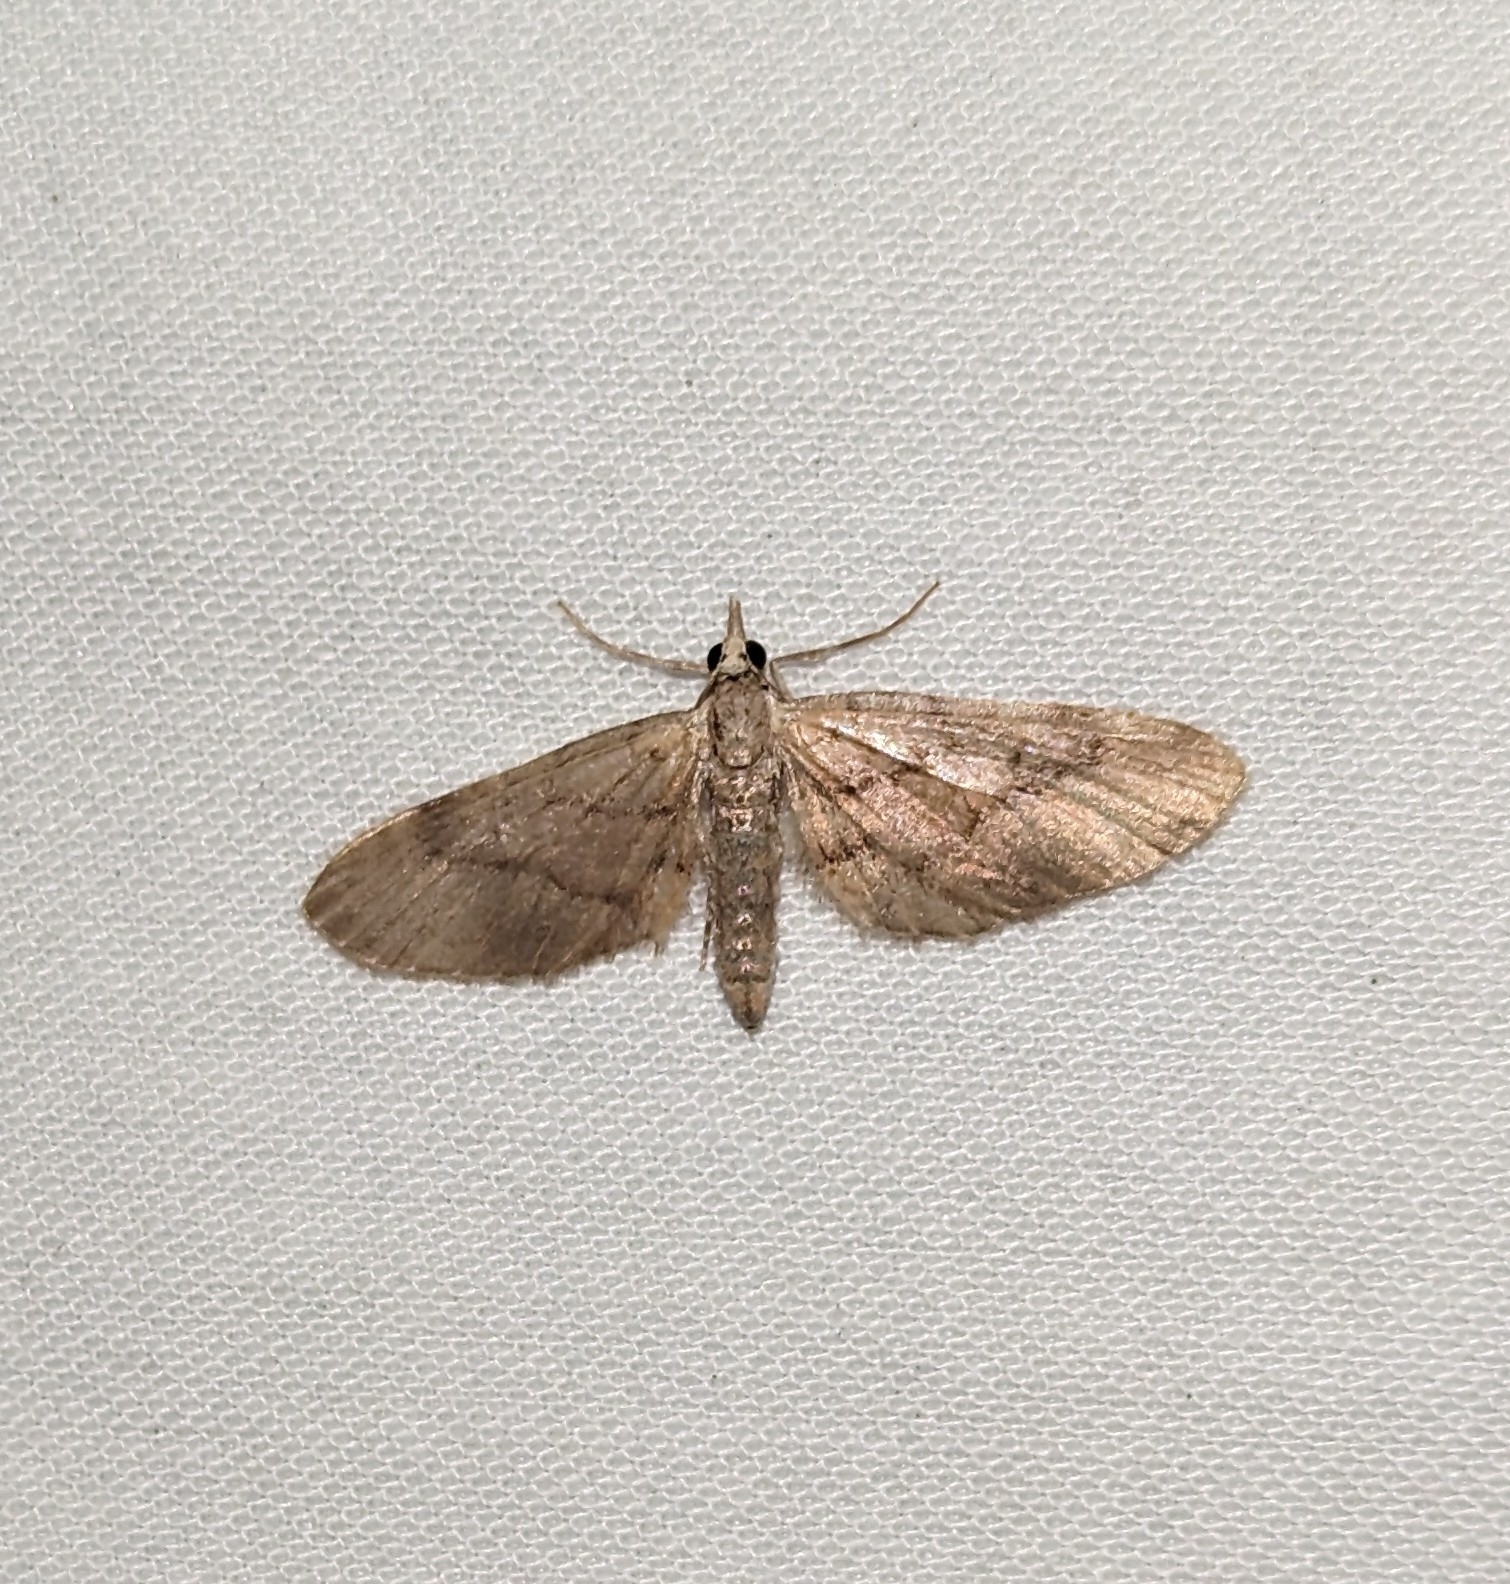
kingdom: Animalia
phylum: Arthropoda
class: Insecta
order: Lepidoptera
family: Geometridae
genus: Eupithecia
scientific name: Eupithecia unicolor
